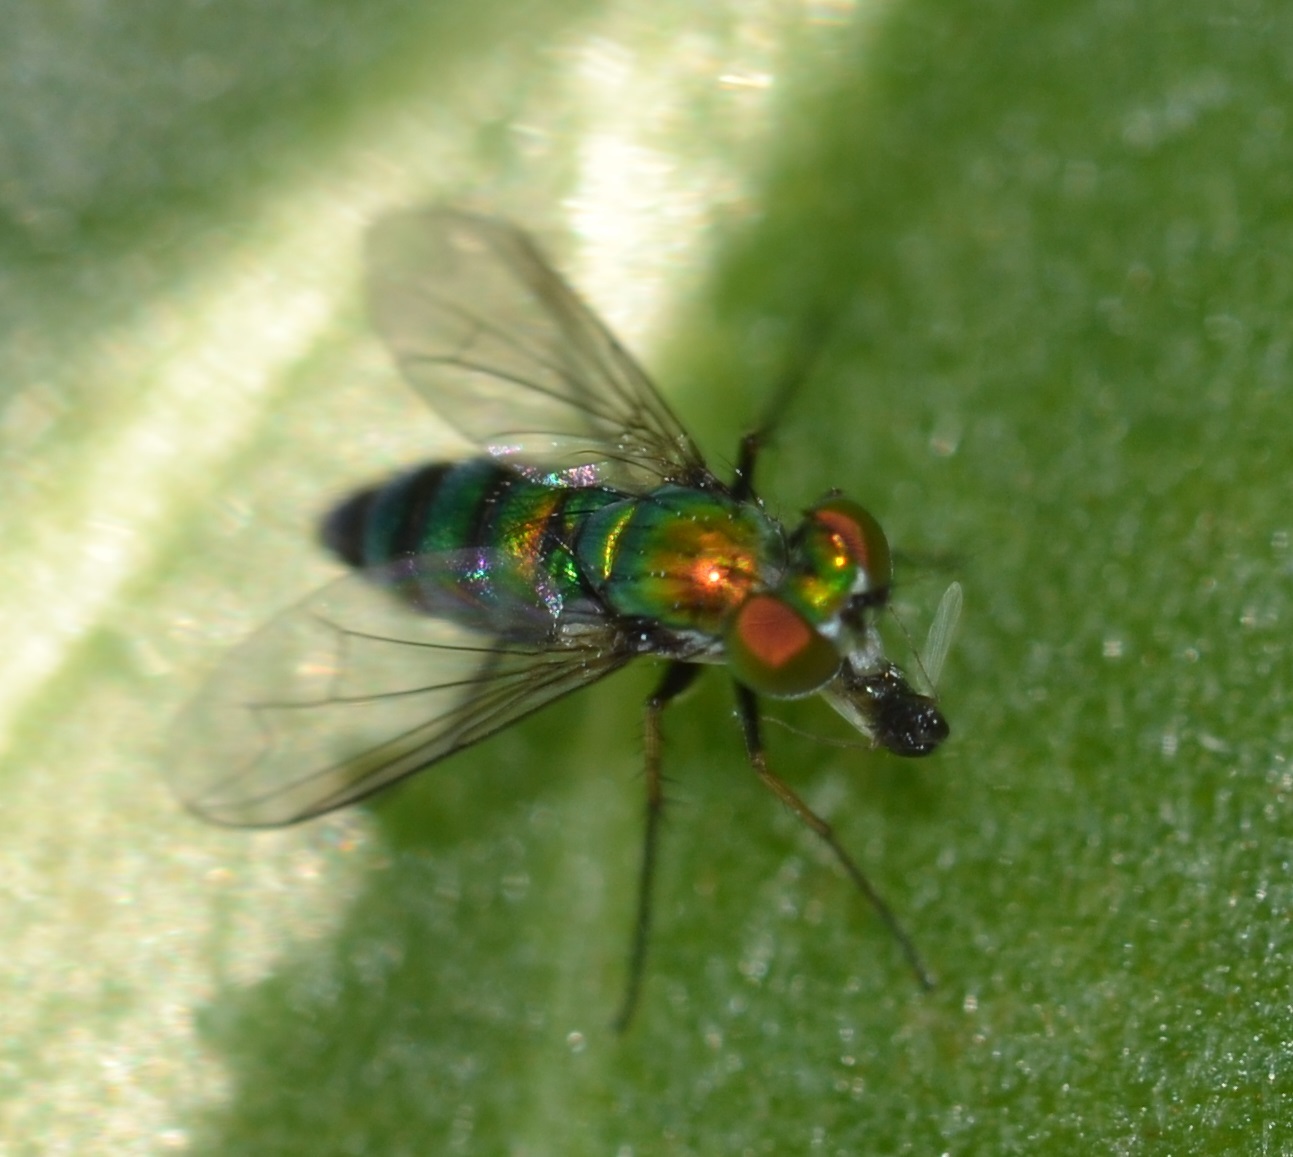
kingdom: Animalia
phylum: Arthropoda
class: Insecta
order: Diptera
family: Dolichopodidae
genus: Condylostylus
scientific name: Condylostylus longicornis
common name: Long-legged fly
